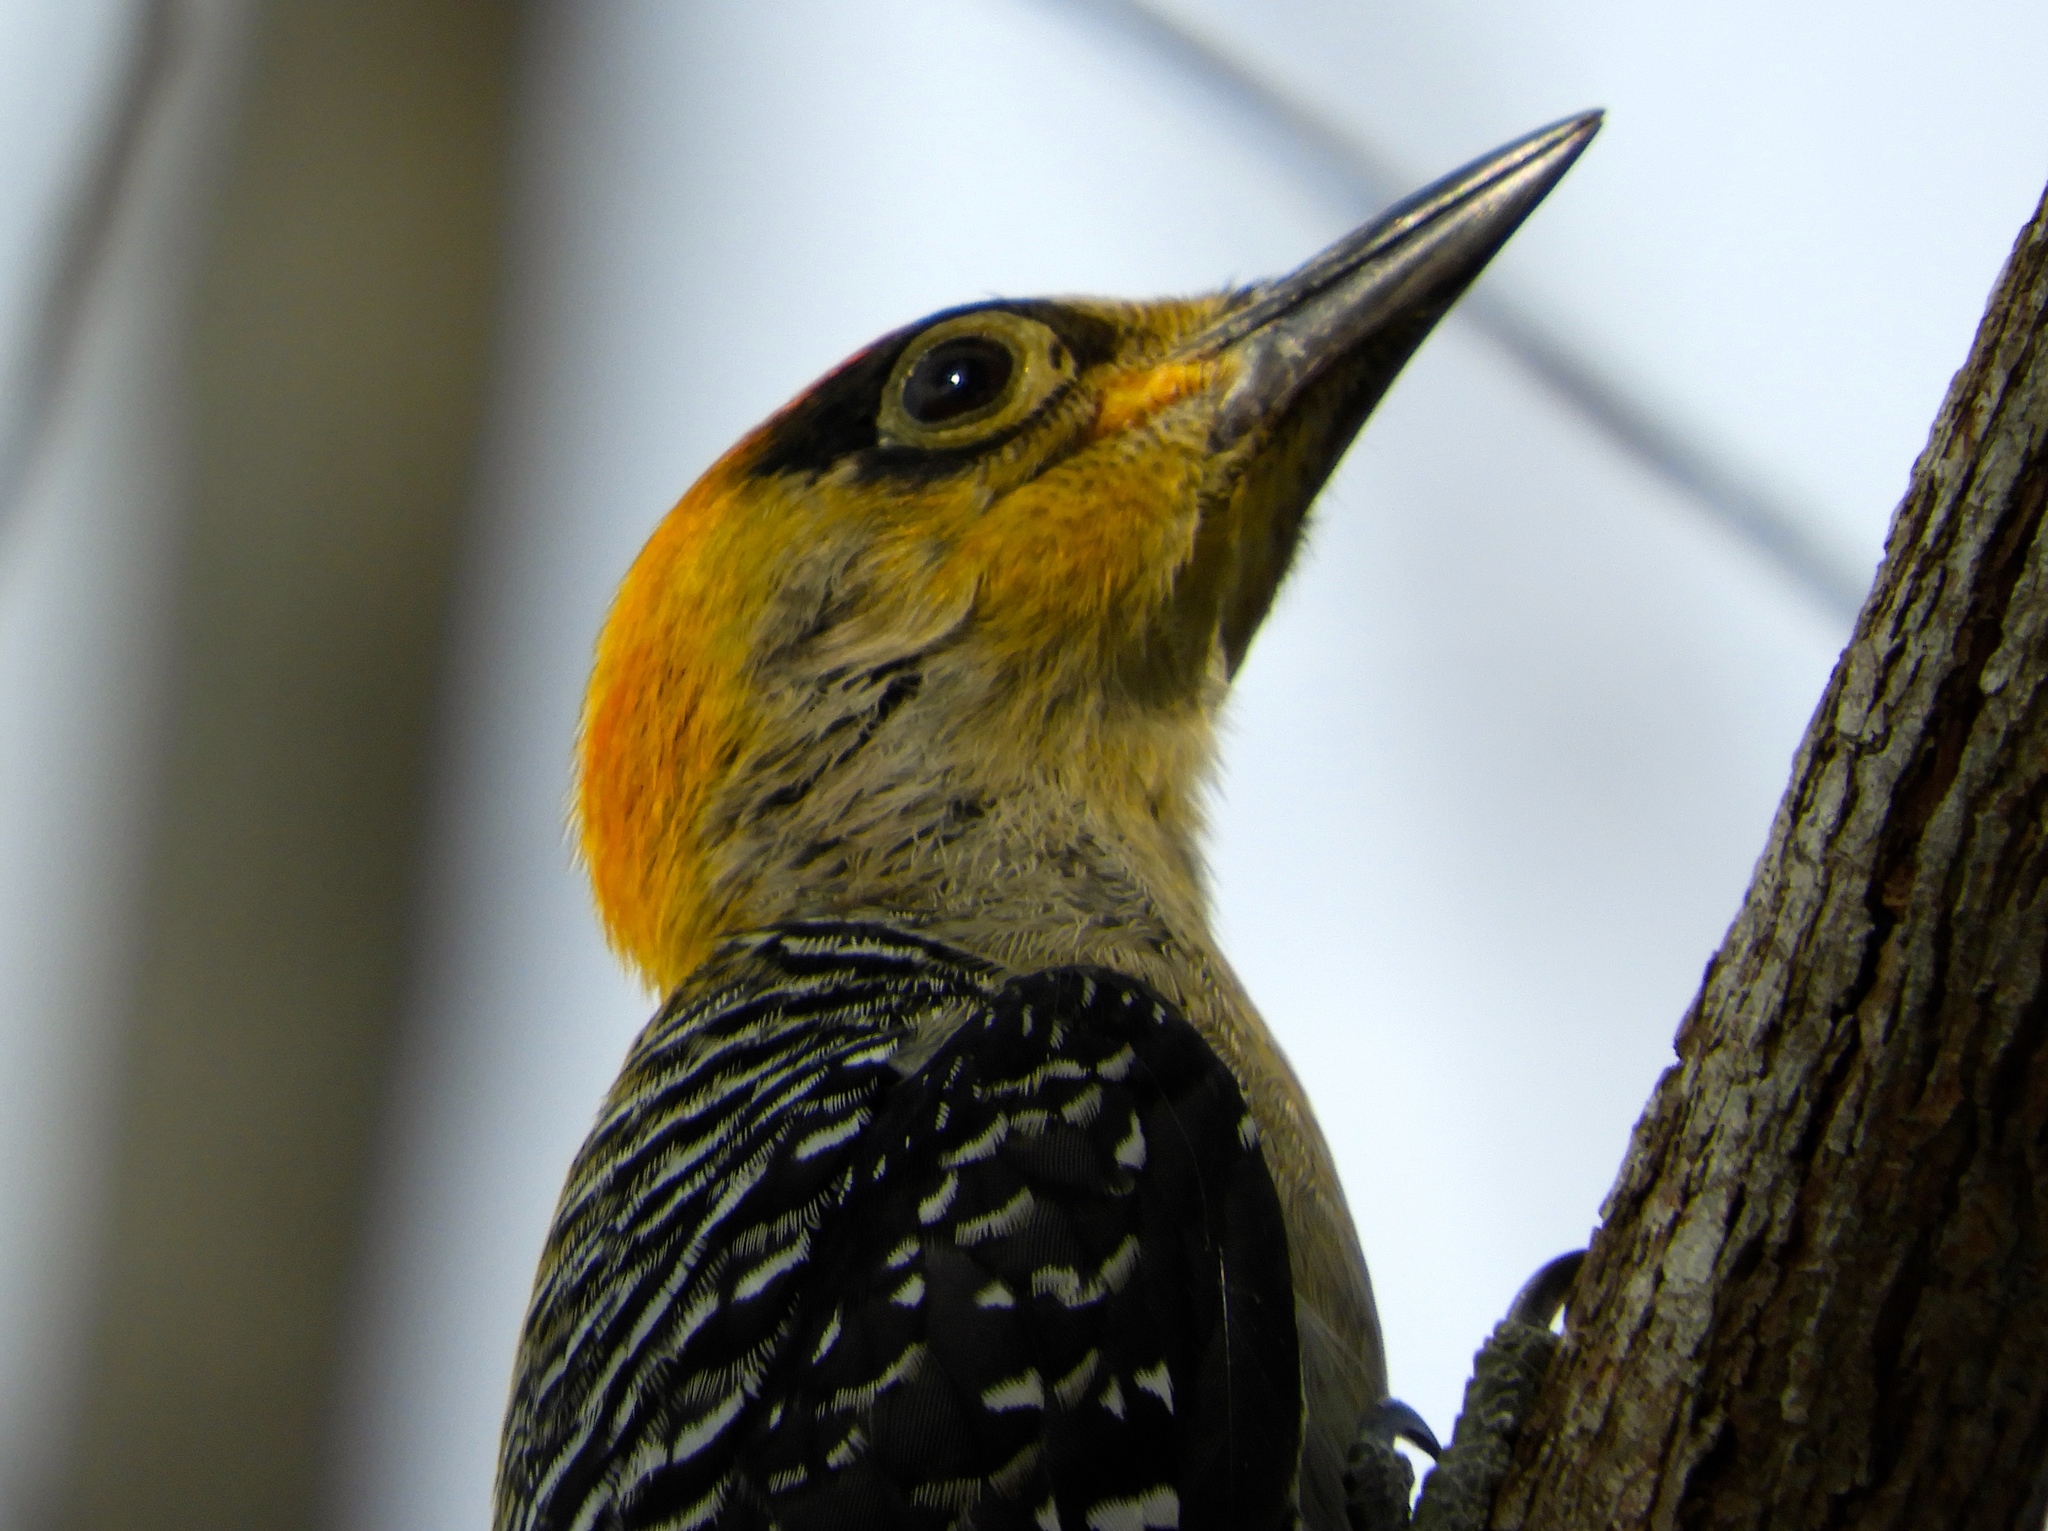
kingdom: Animalia
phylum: Chordata
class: Aves
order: Piciformes
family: Picidae
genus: Melanerpes
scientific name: Melanerpes chrysogenys
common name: Golden-cheeked woodpecker
